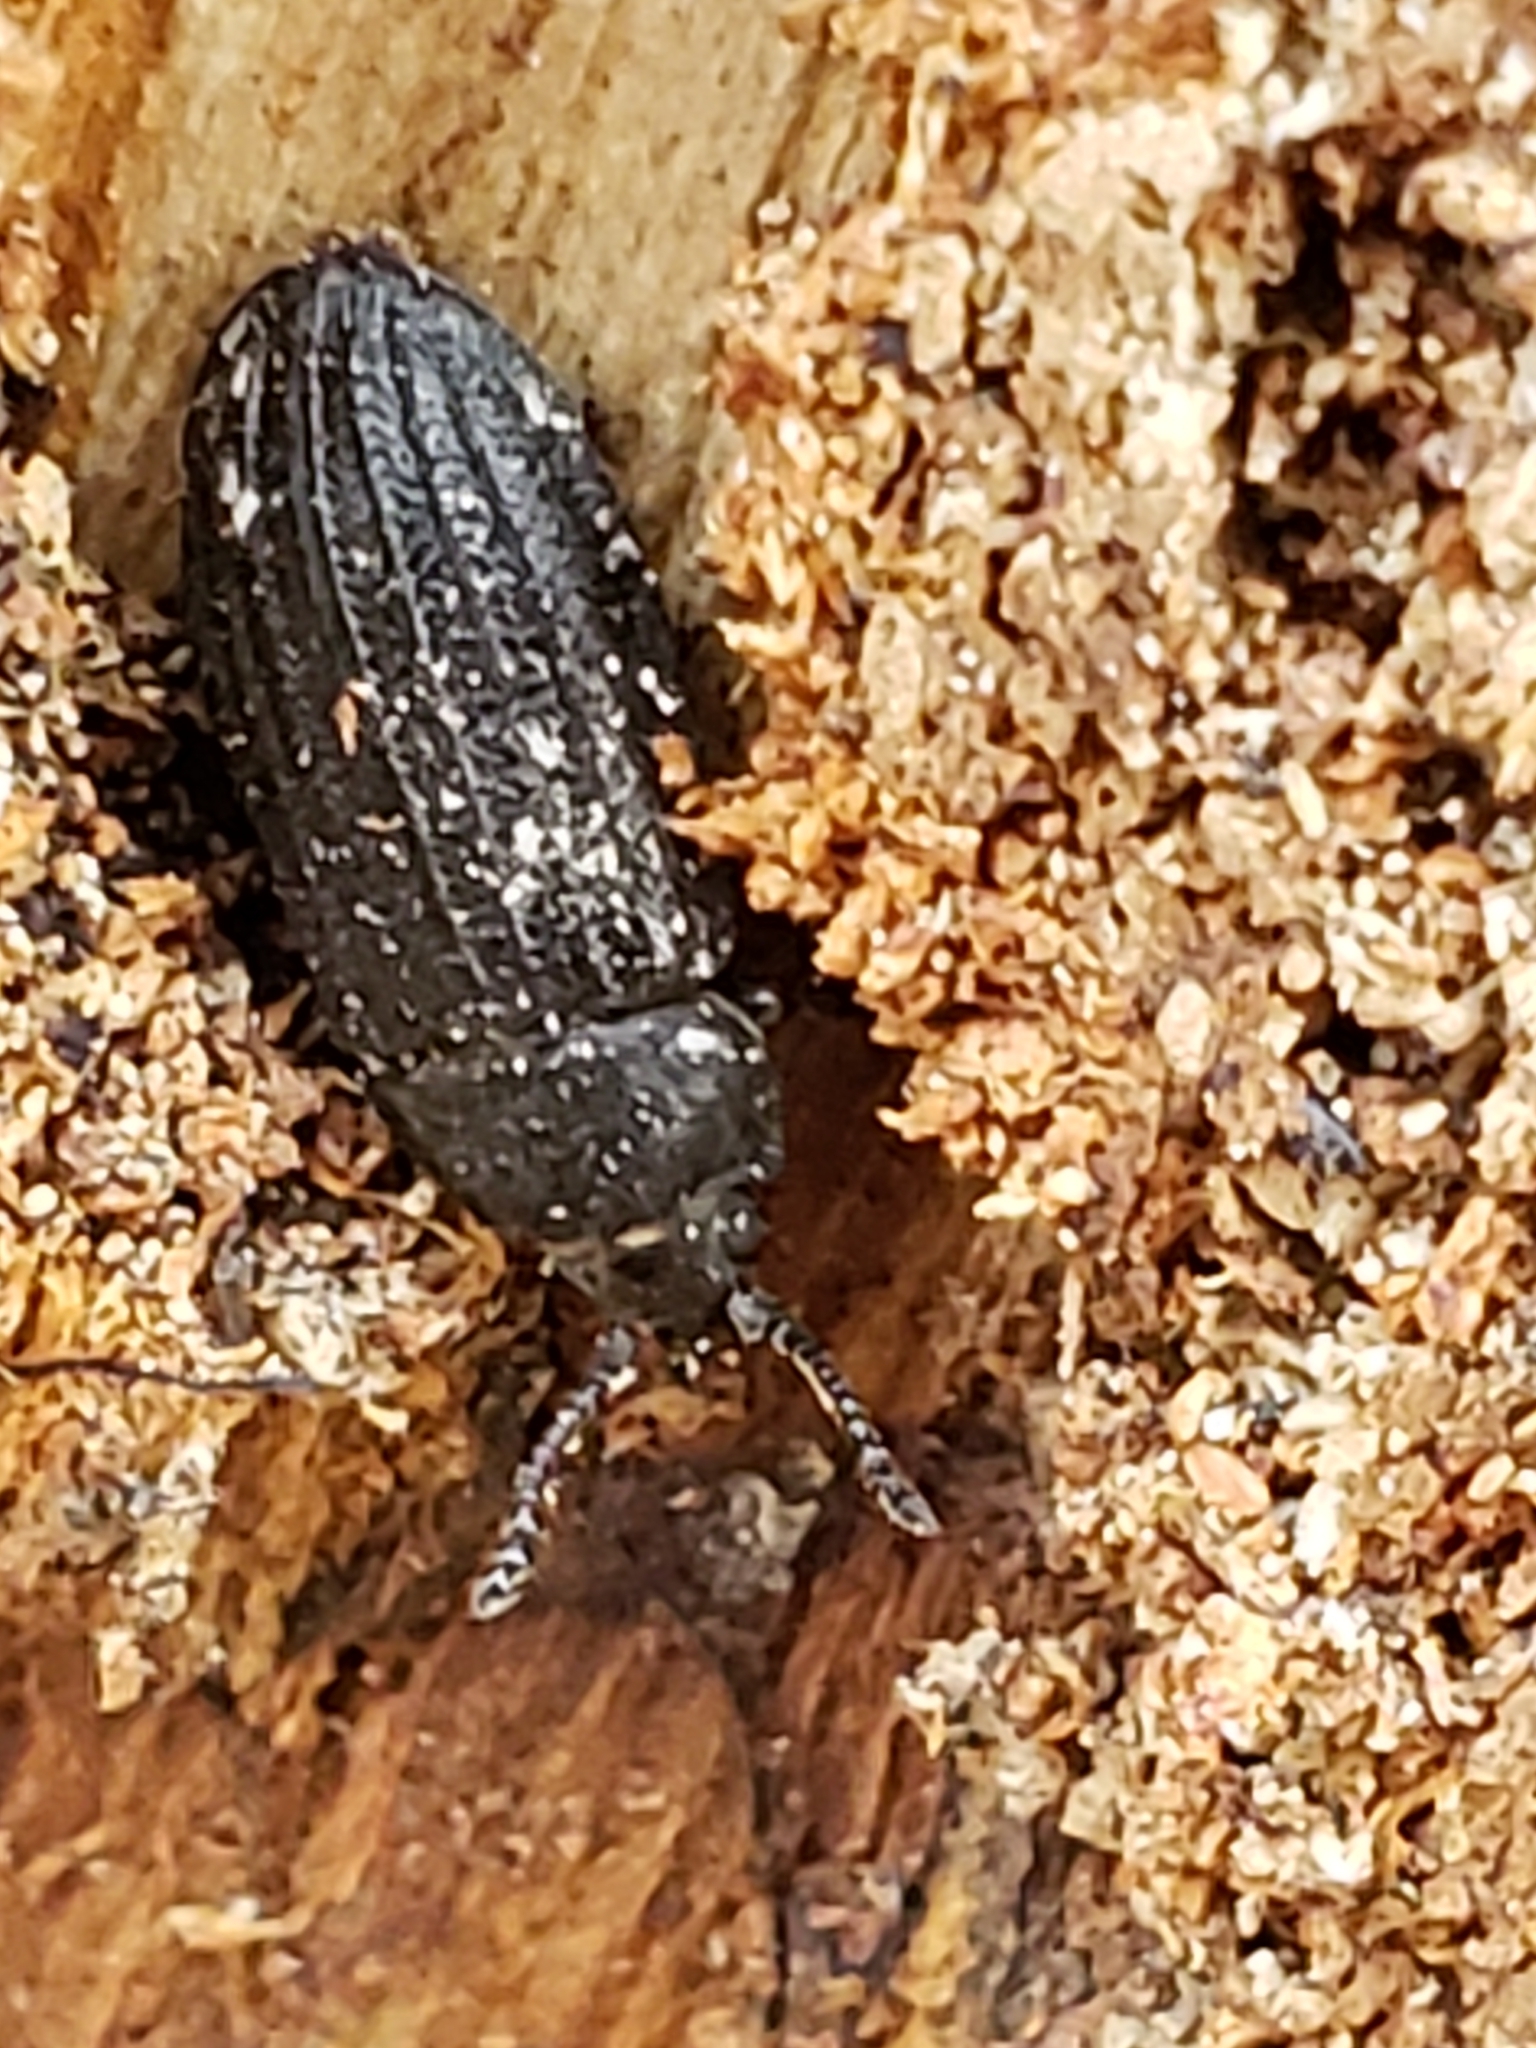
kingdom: Animalia
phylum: Arthropoda
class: Insecta
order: Coleoptera
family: Trogossitidae
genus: Grynocharis
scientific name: Grynocharis quadrilineata
